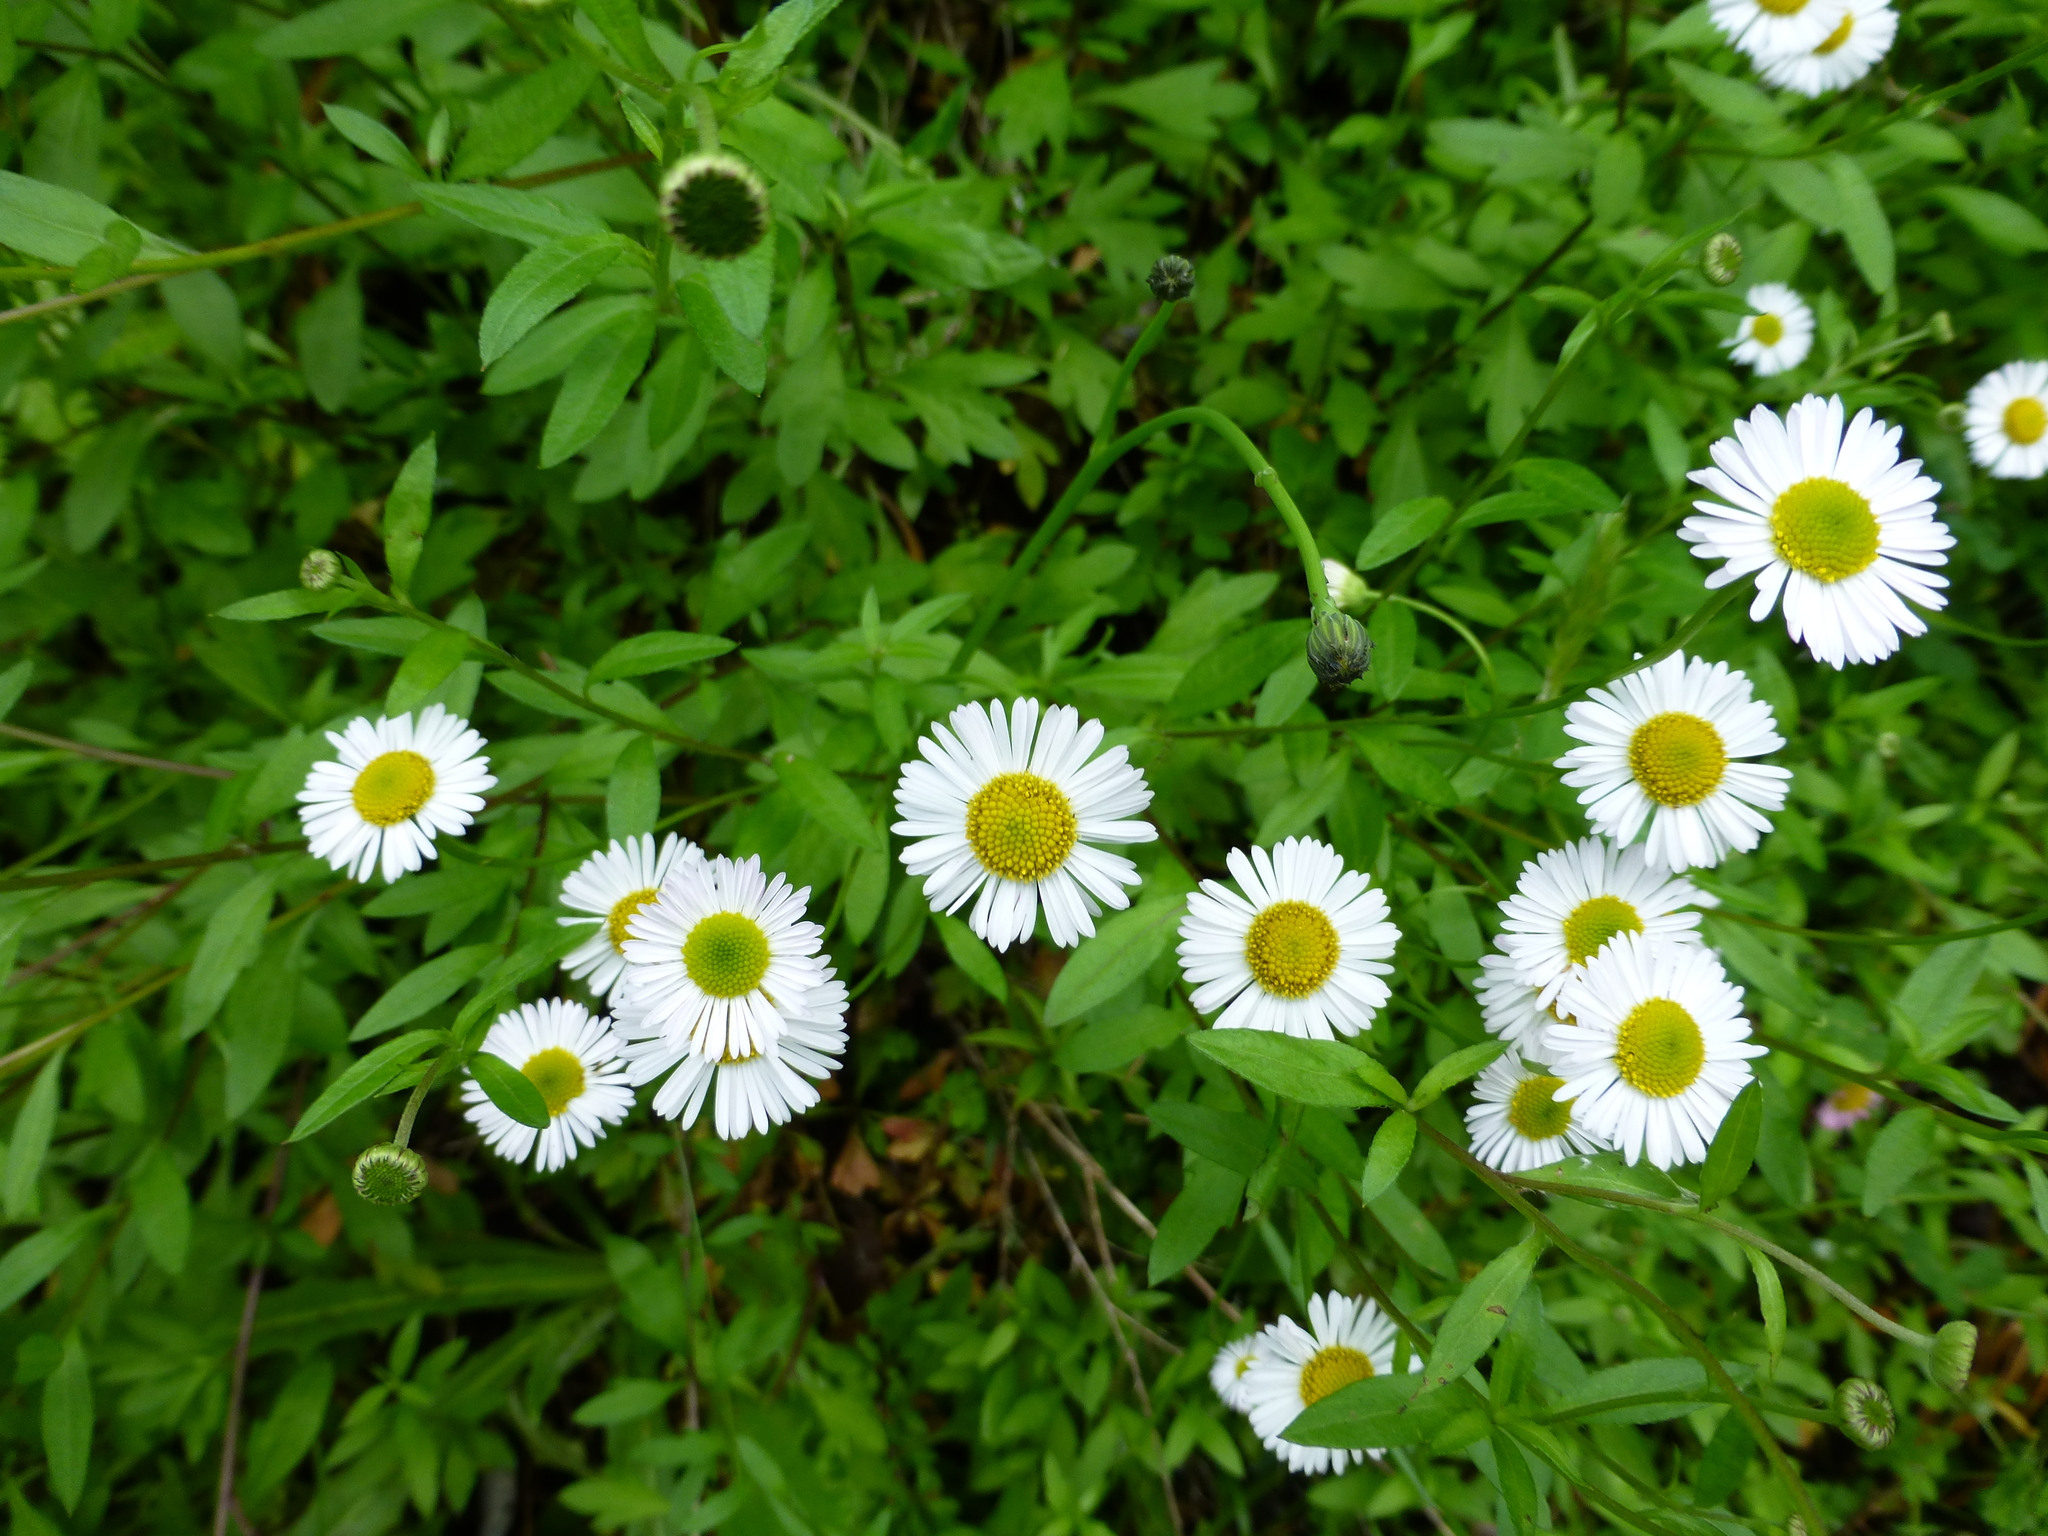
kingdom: Plantae
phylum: Tracheophyta
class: Magnoliopsida
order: Asterales
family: Asteraceae
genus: Erigeron
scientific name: Erigeron karvinskianus
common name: Mexican fleabane
